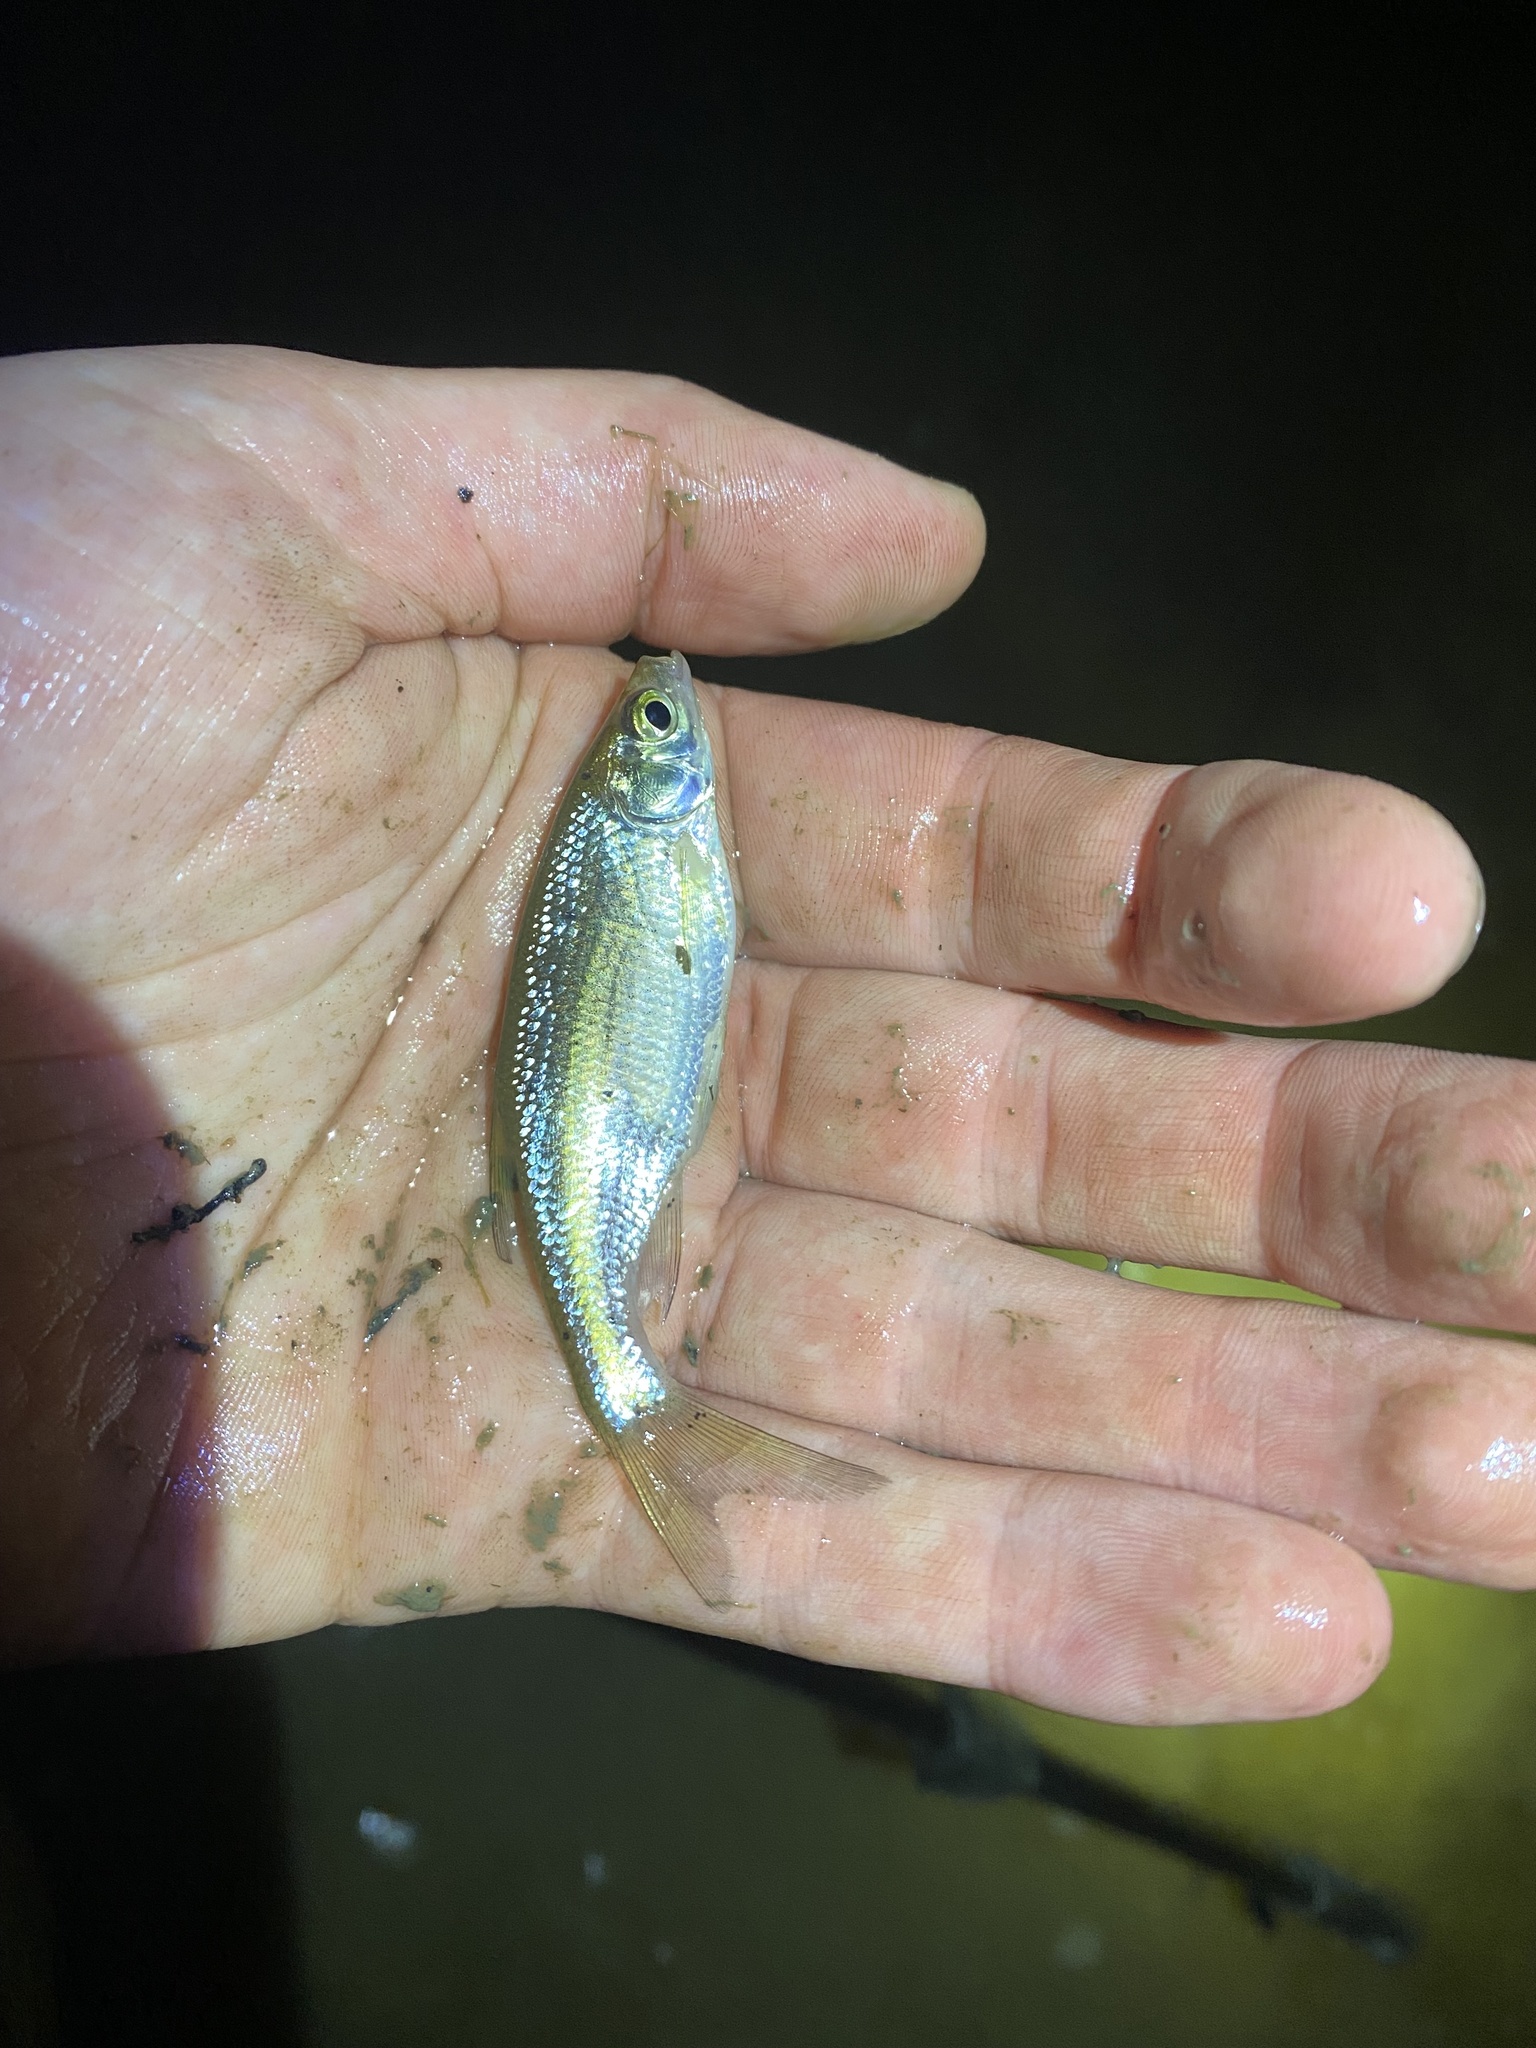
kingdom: Animalia
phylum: Chordata
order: Cypriniformes
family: Cyprinidae
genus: Notemigonus
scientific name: Notemigonus crysoleucas
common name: Golden shiner
